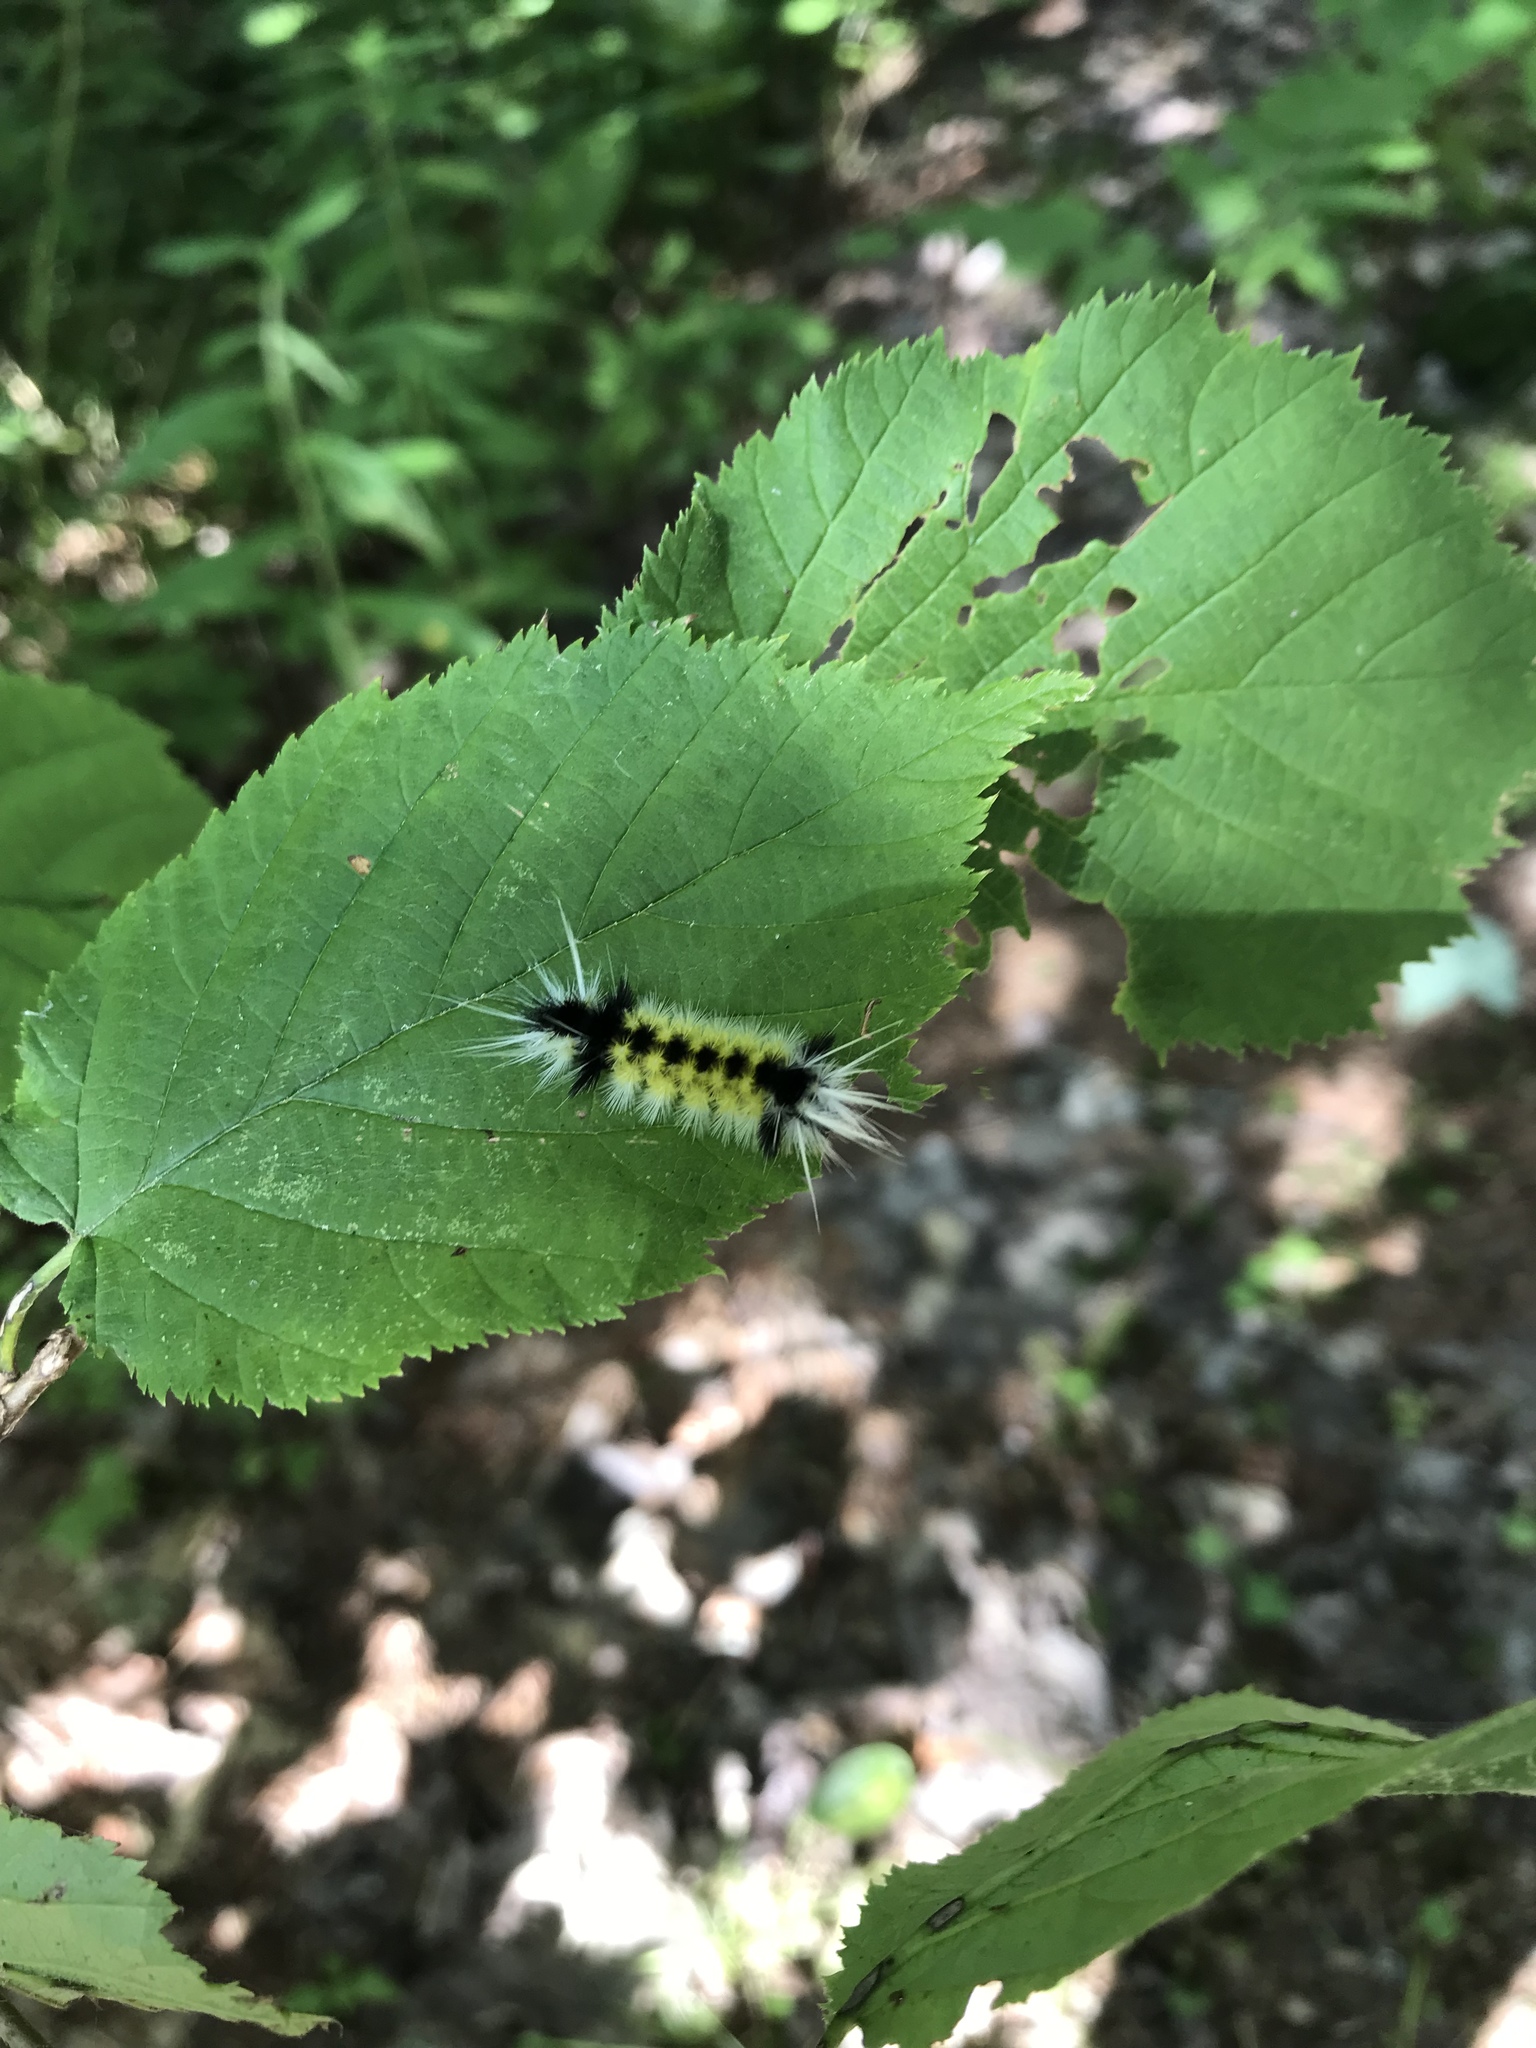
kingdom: Animalia
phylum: Arthropoda
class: Insecta
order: Lepidoptera
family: Erebidae
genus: Lophocampa
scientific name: Lophocampa maculata
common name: Spotted tussock moth
